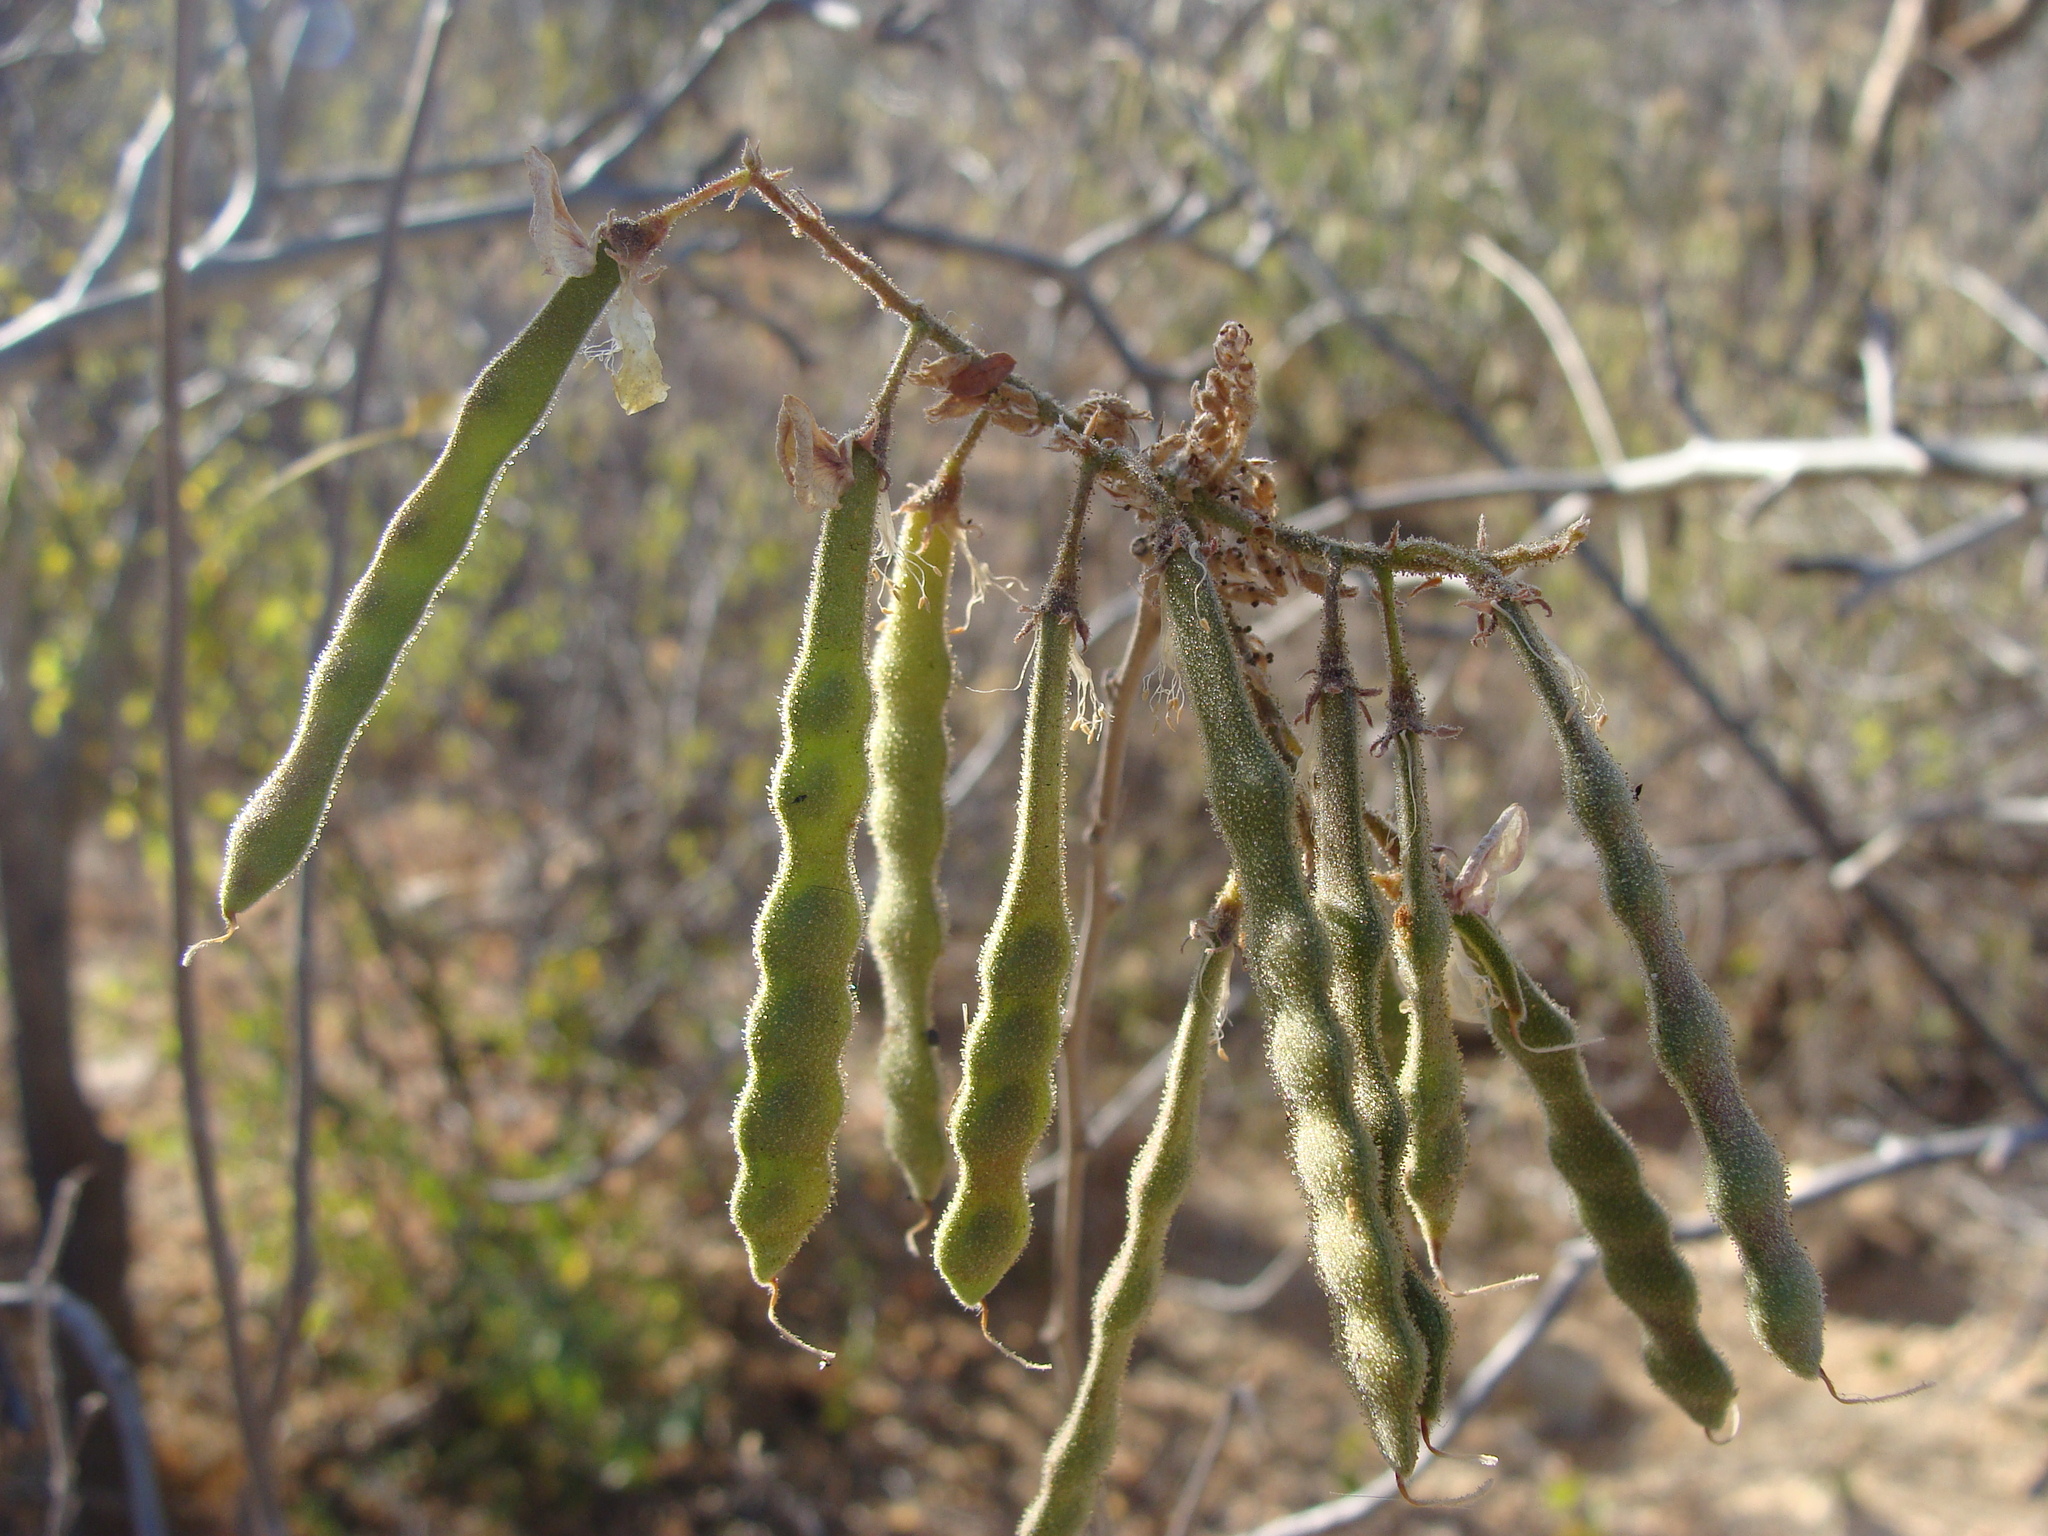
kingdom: Plantae
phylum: Tracheophyta
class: Magnoliopsida
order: Fabales
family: Fabaceae
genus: Coursetia
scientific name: Coursetia glandulosa
